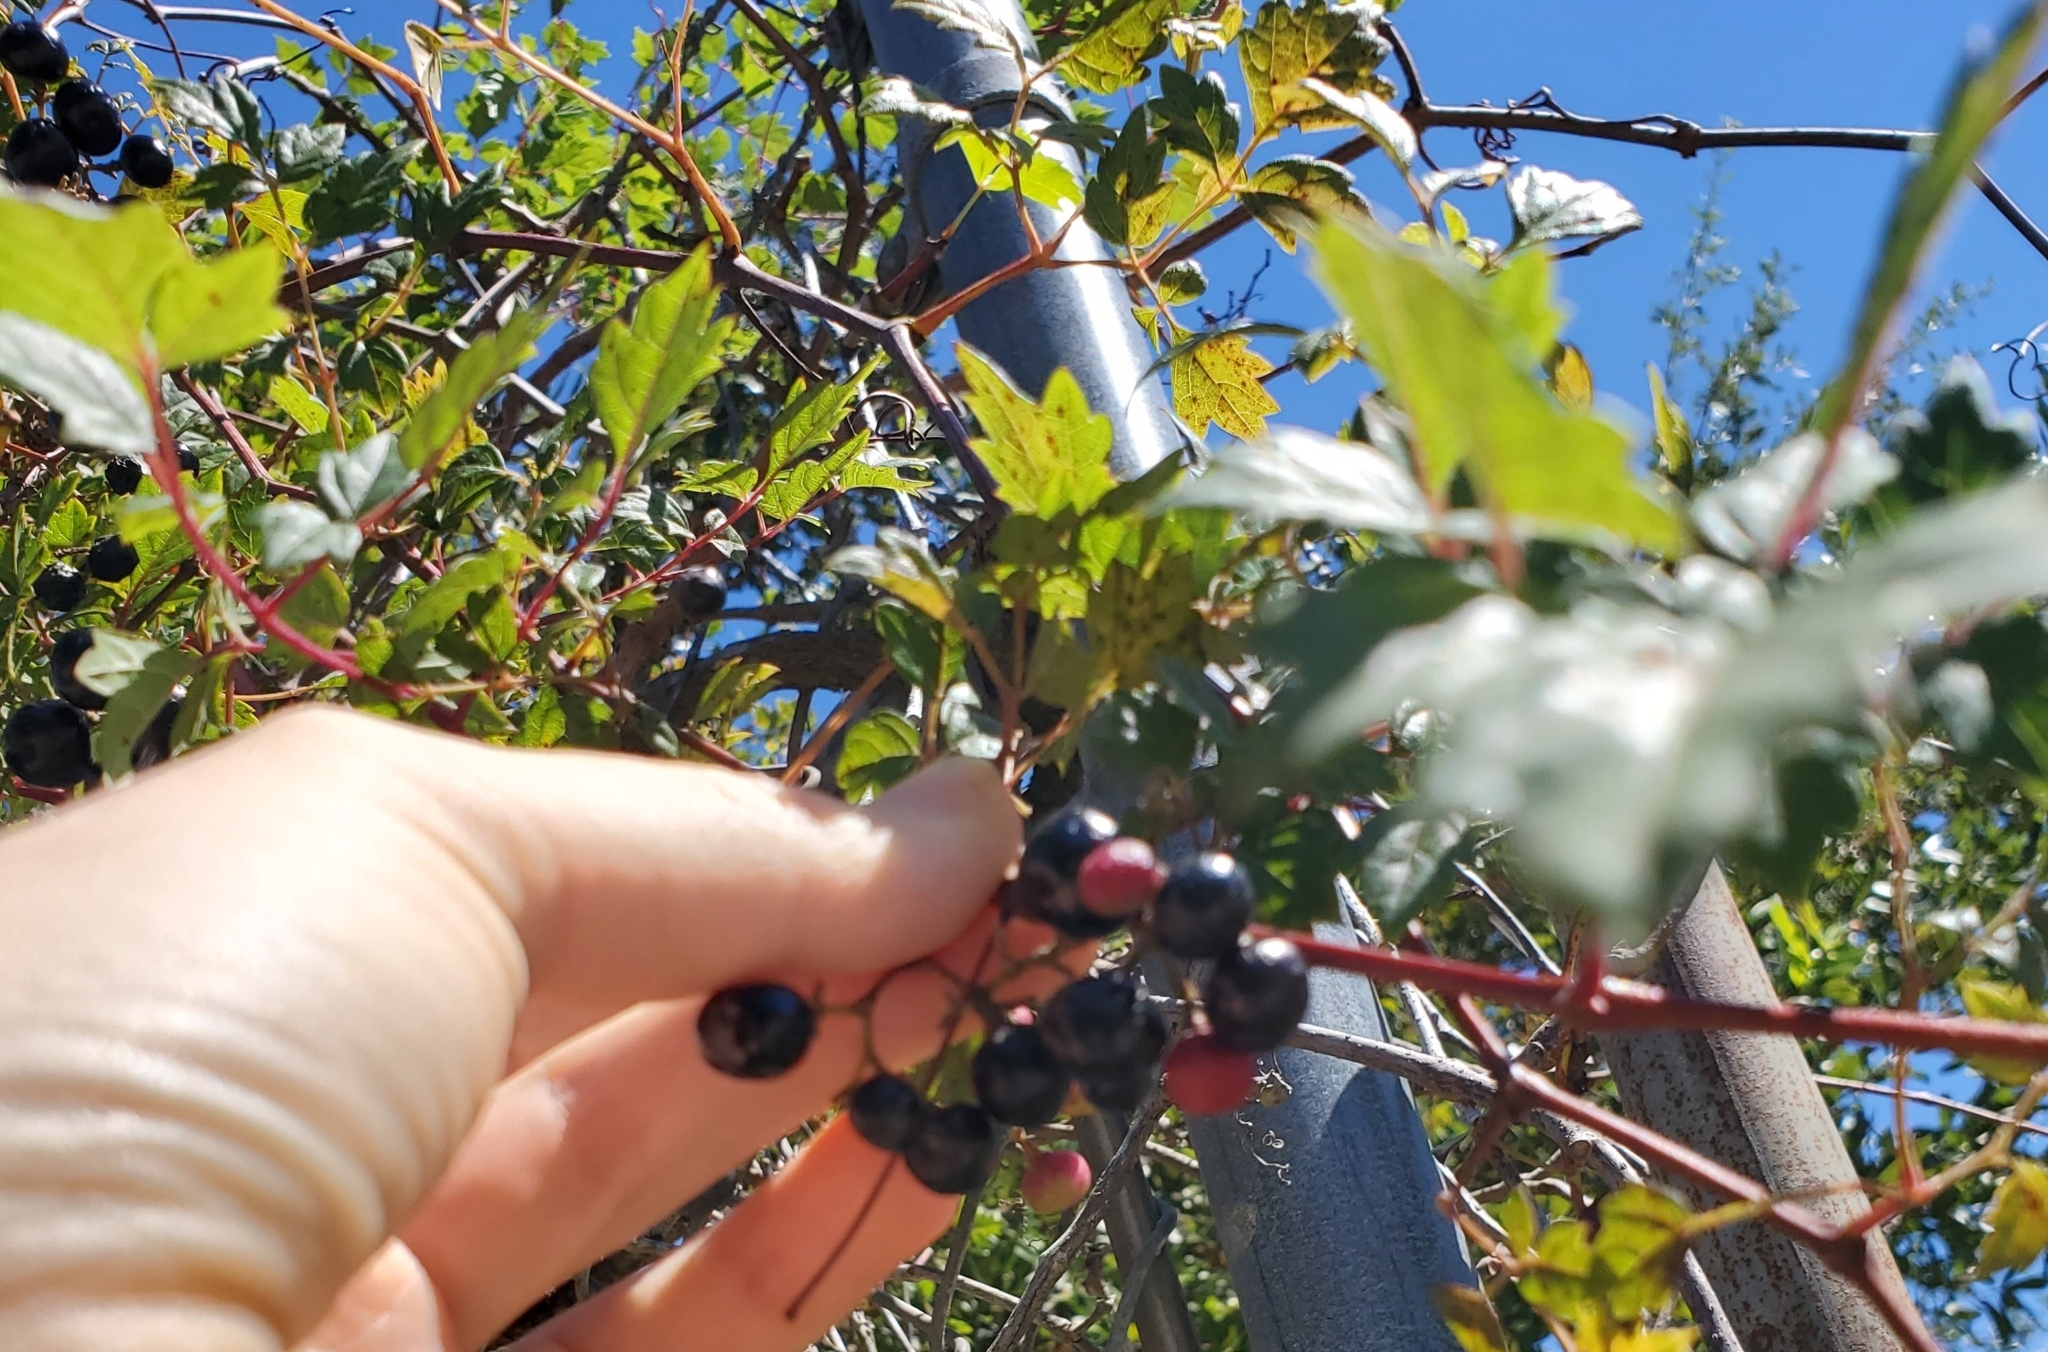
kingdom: Plantae
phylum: Tracheophyta
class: Magnoliopsida
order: Vitales
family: Vitaceae
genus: Nekemias
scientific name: Nekemias arborea
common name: Peppervine
